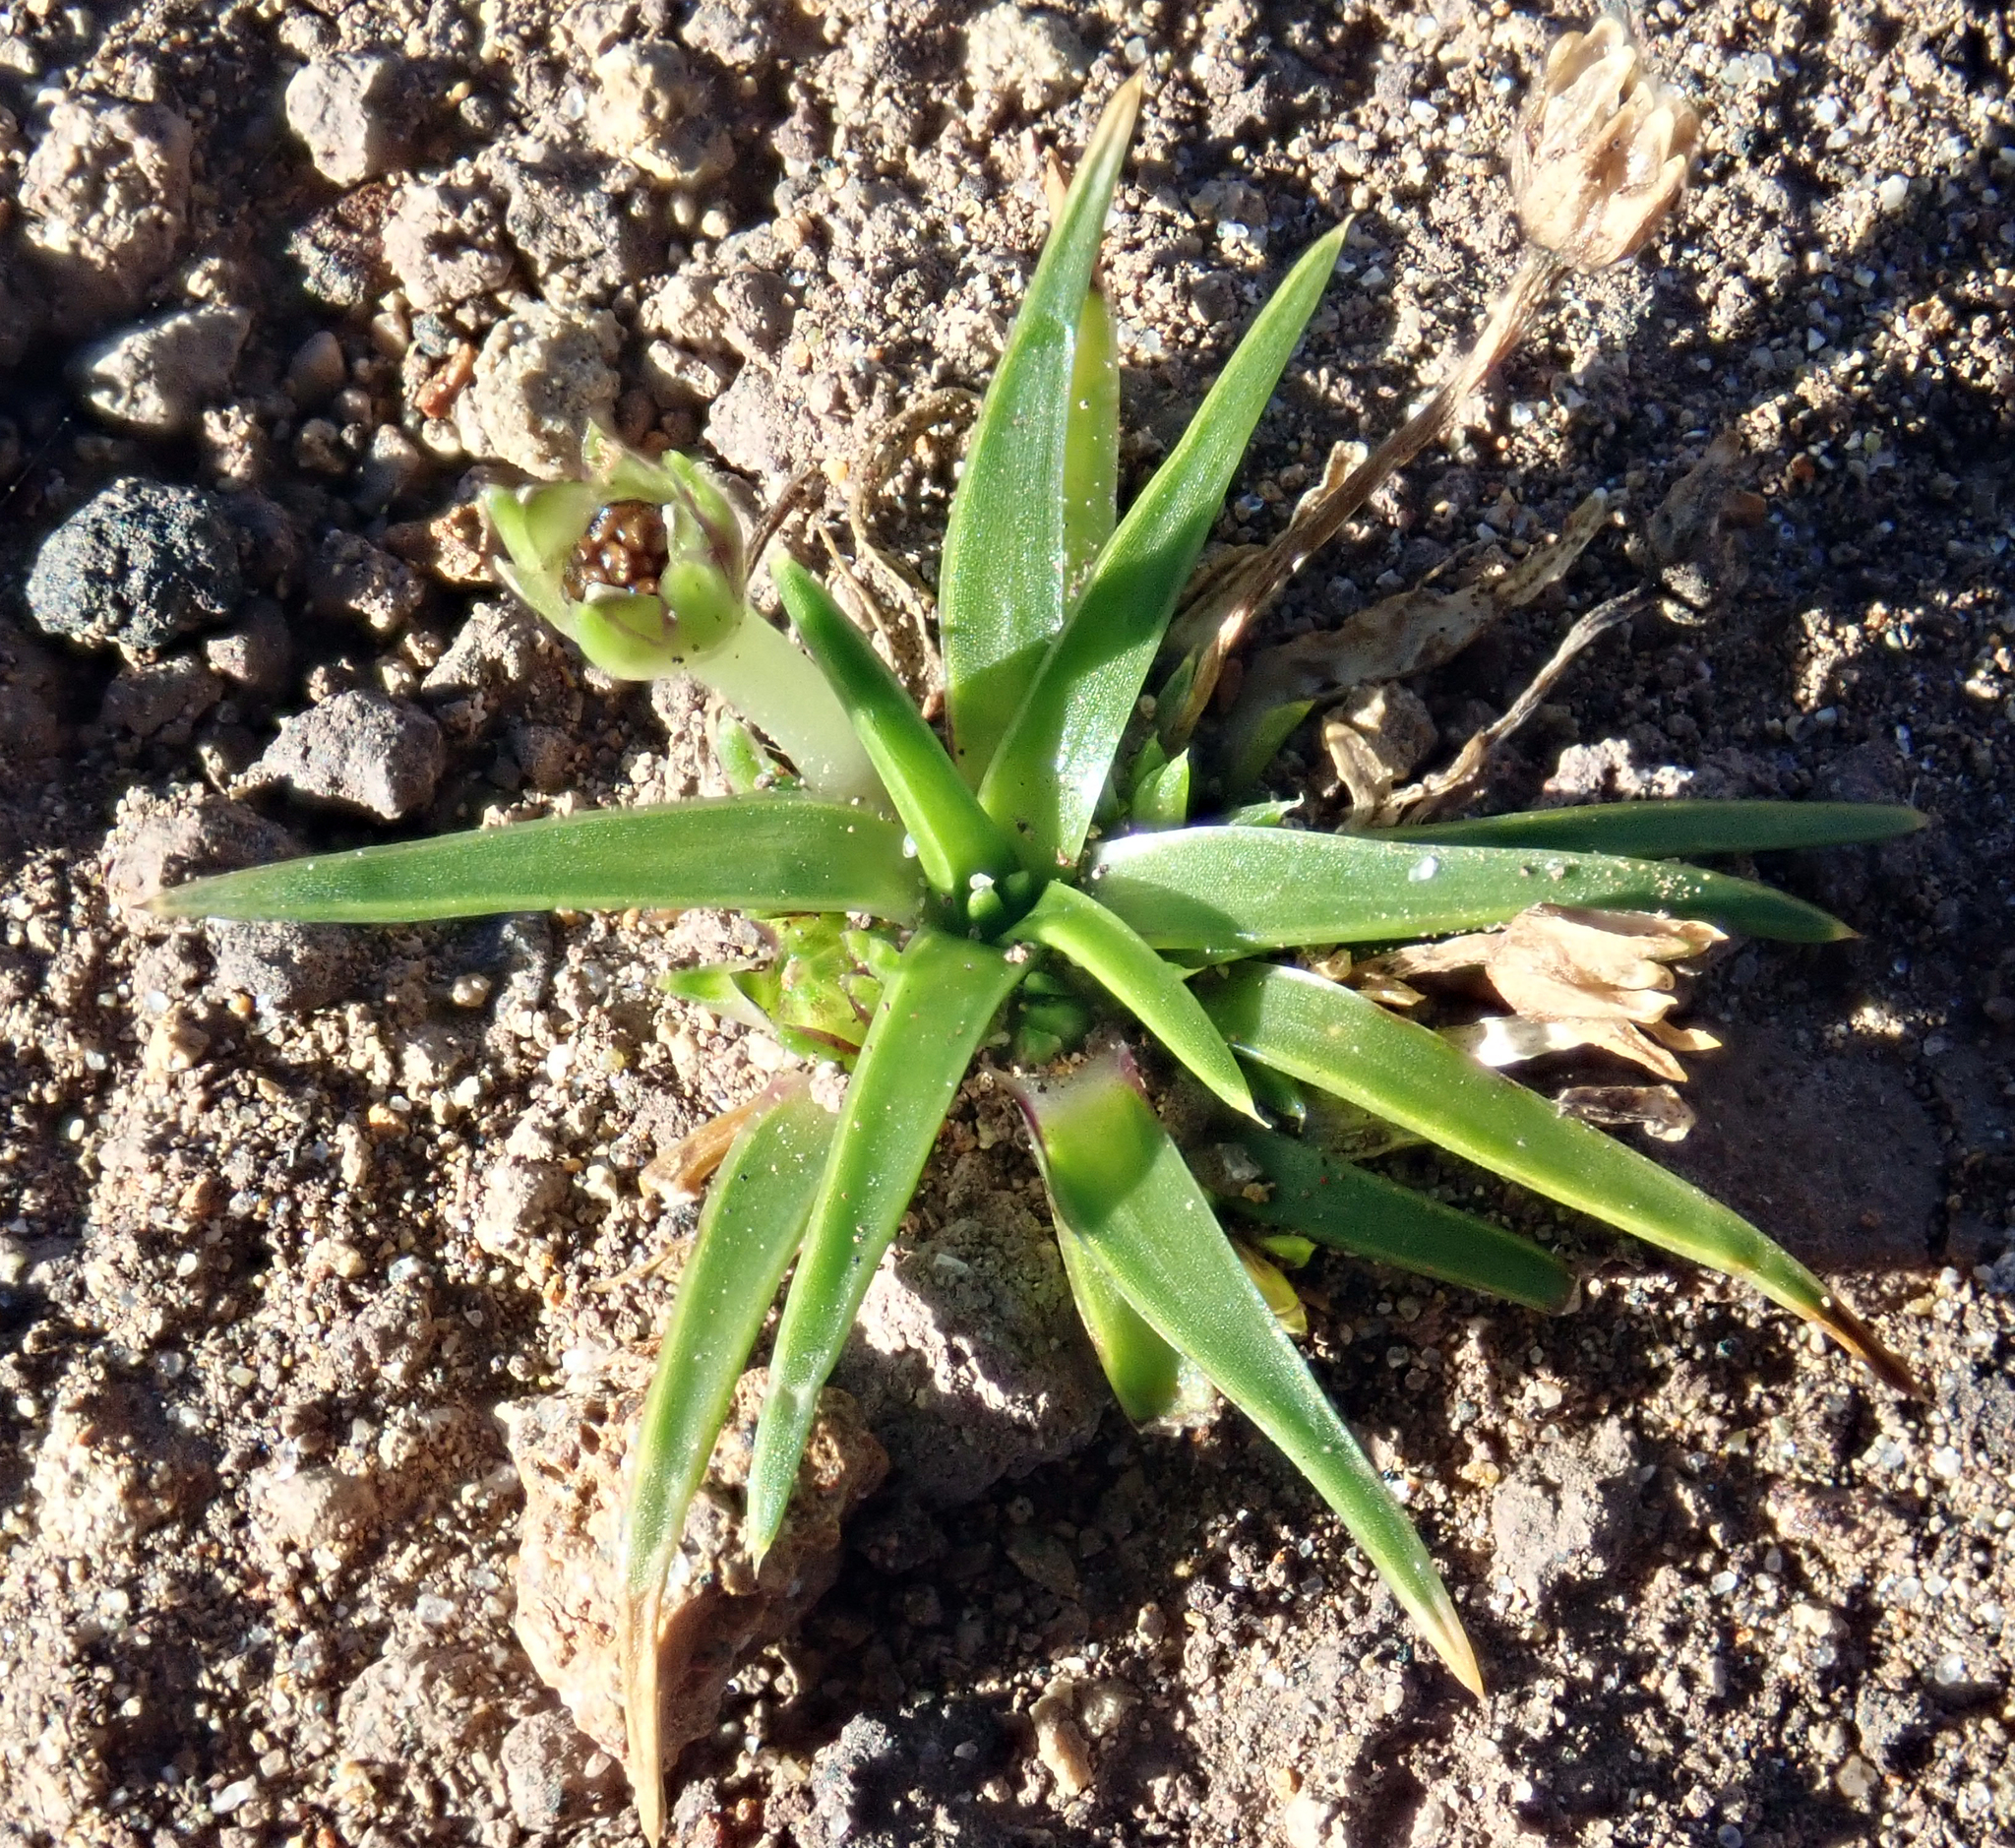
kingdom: Plantae
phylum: Tracheophyta
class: Magnoliopsida
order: Caryophyllales
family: Caryophyllaceae
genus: Colobanthus
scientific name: Colobanthus muelleri
